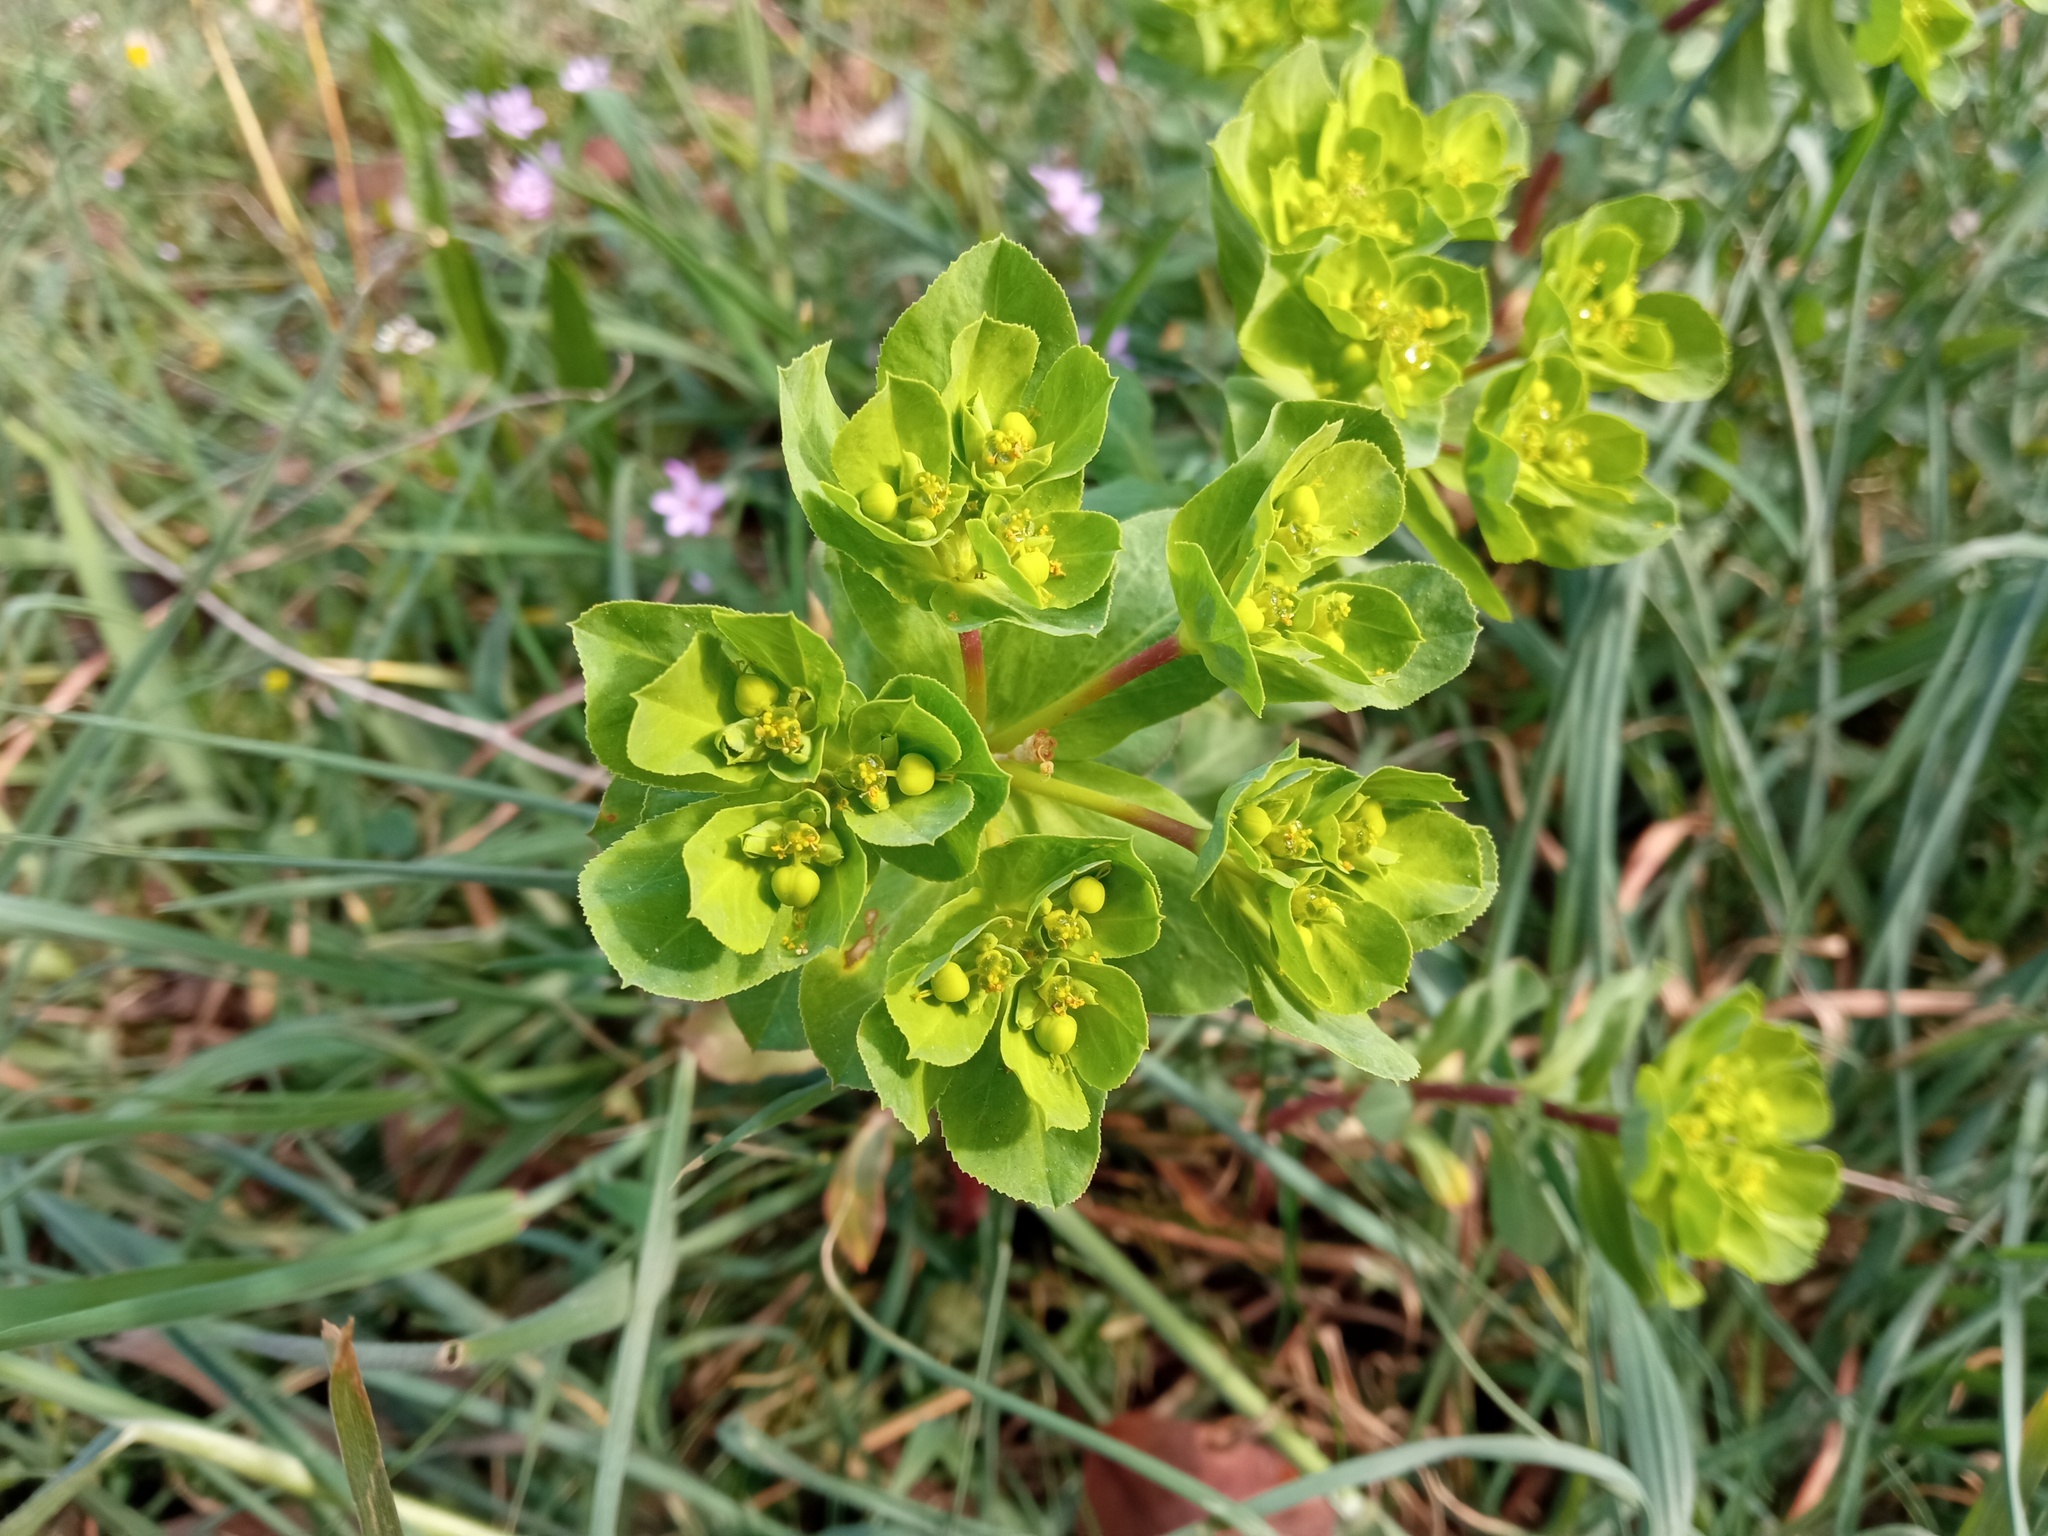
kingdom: Plantae
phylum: Tracheophyta
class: Magnoliopsida
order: Malpighiales
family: Euphorbiaceae
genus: Euphorbia
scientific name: Euphorbia helioscopia
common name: Sun spurge
